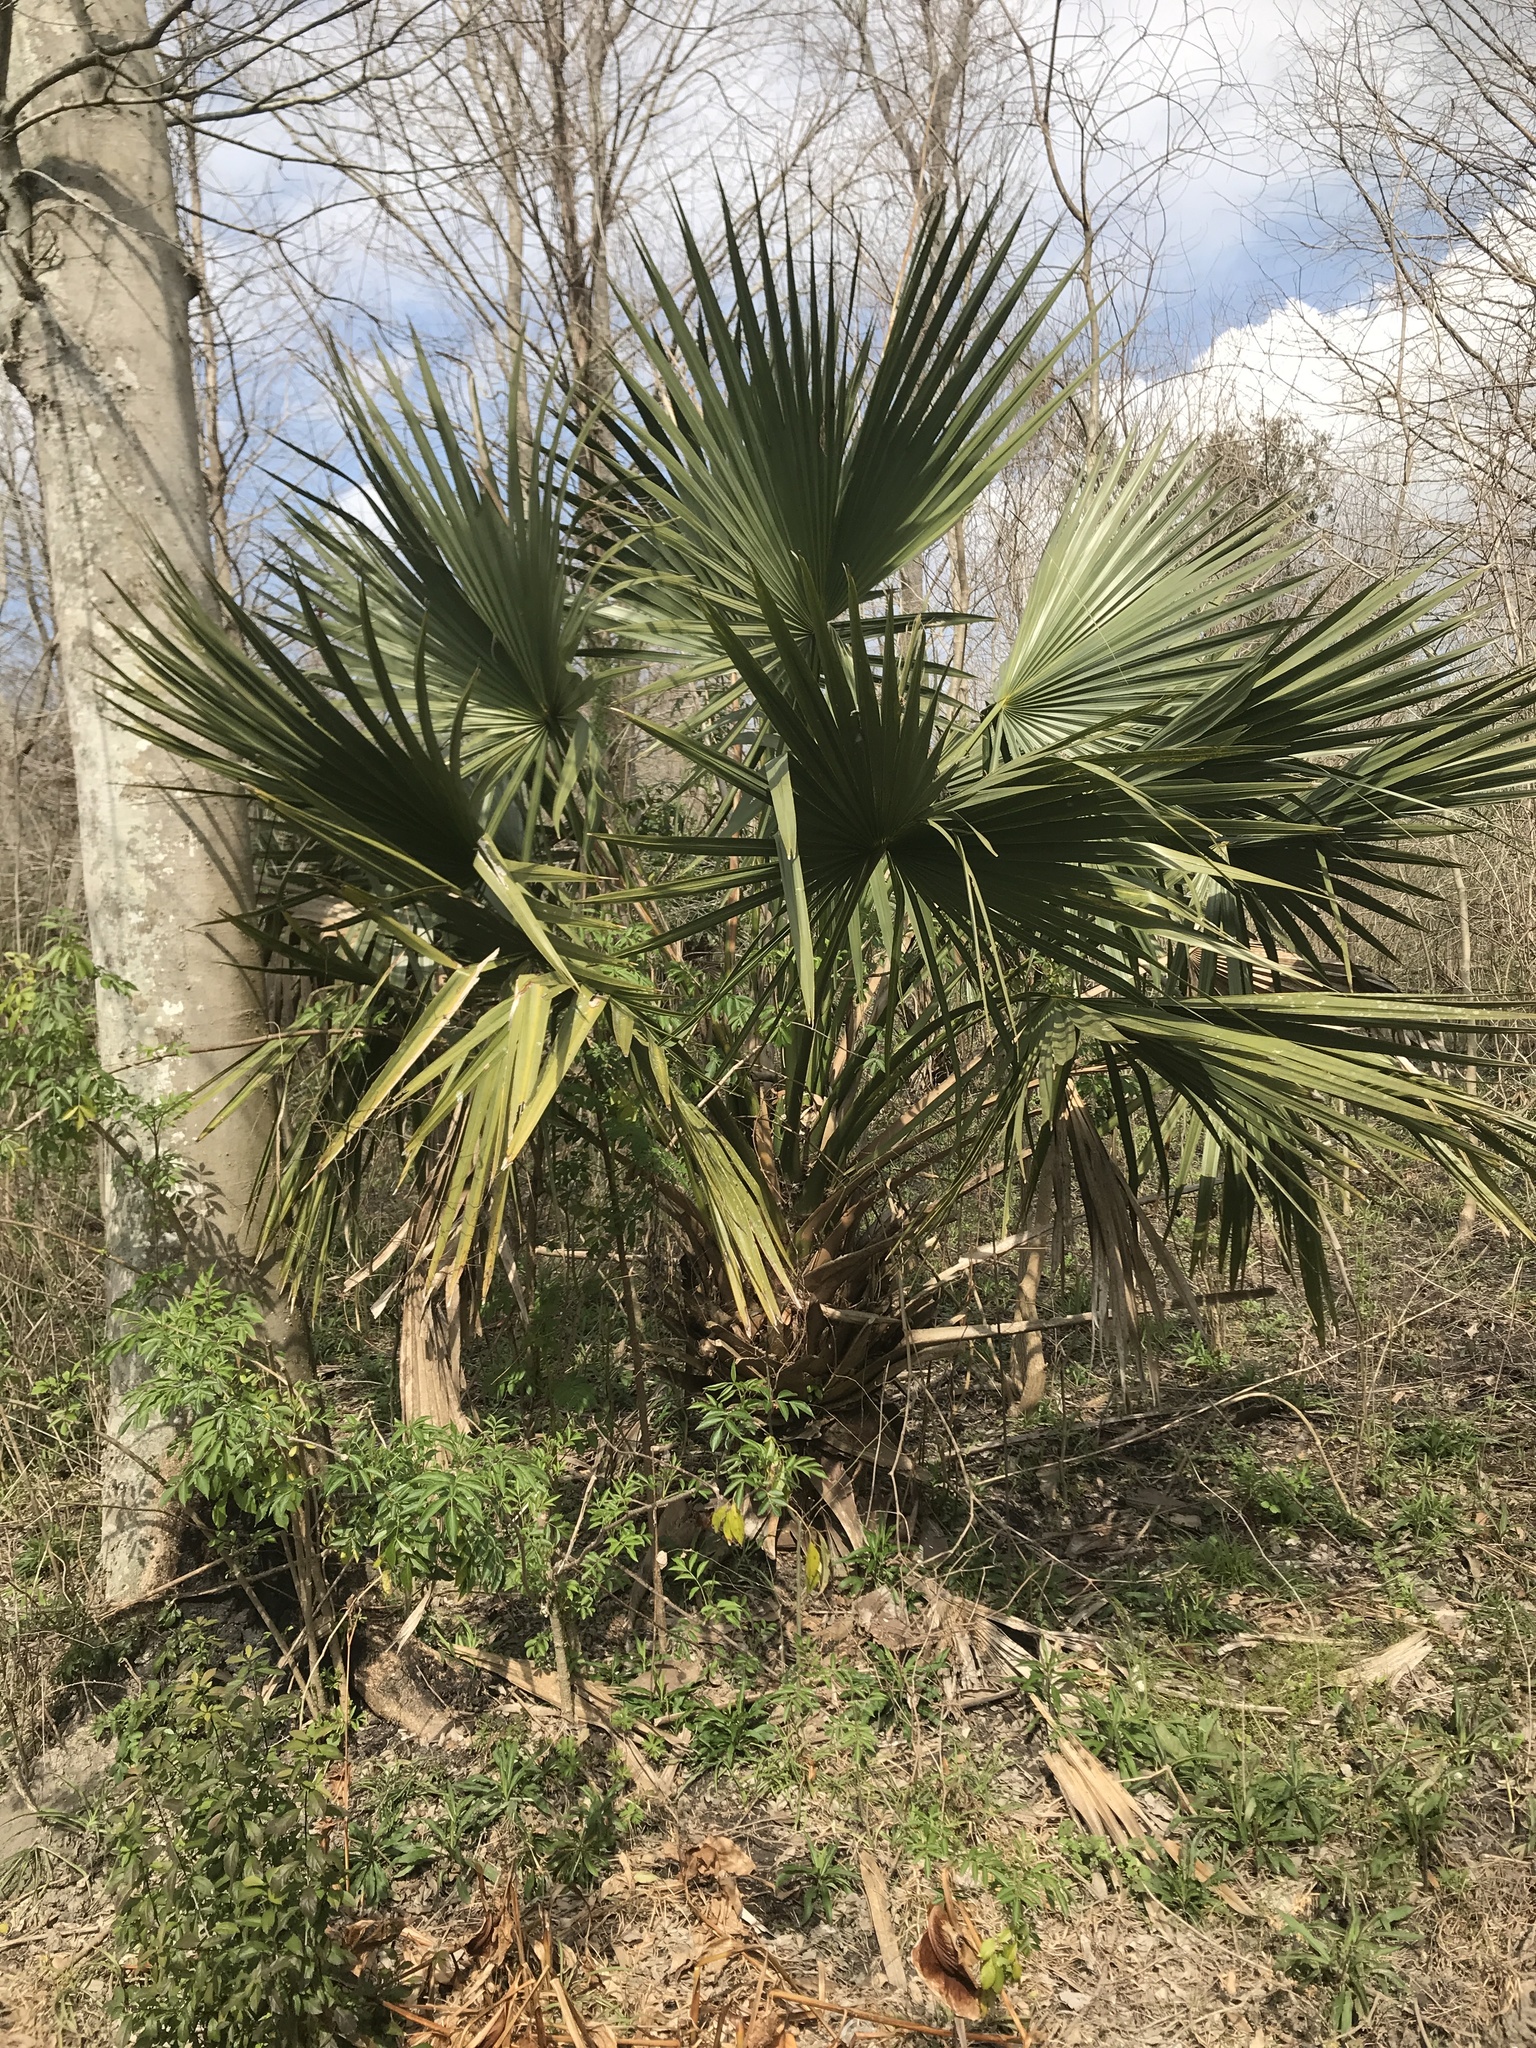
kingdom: Plantae
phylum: Tracheophyta
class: Liliopsida
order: Arecales
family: Arecaceae
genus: Sabal
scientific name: Sabal minor
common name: Dwarf palmetto
